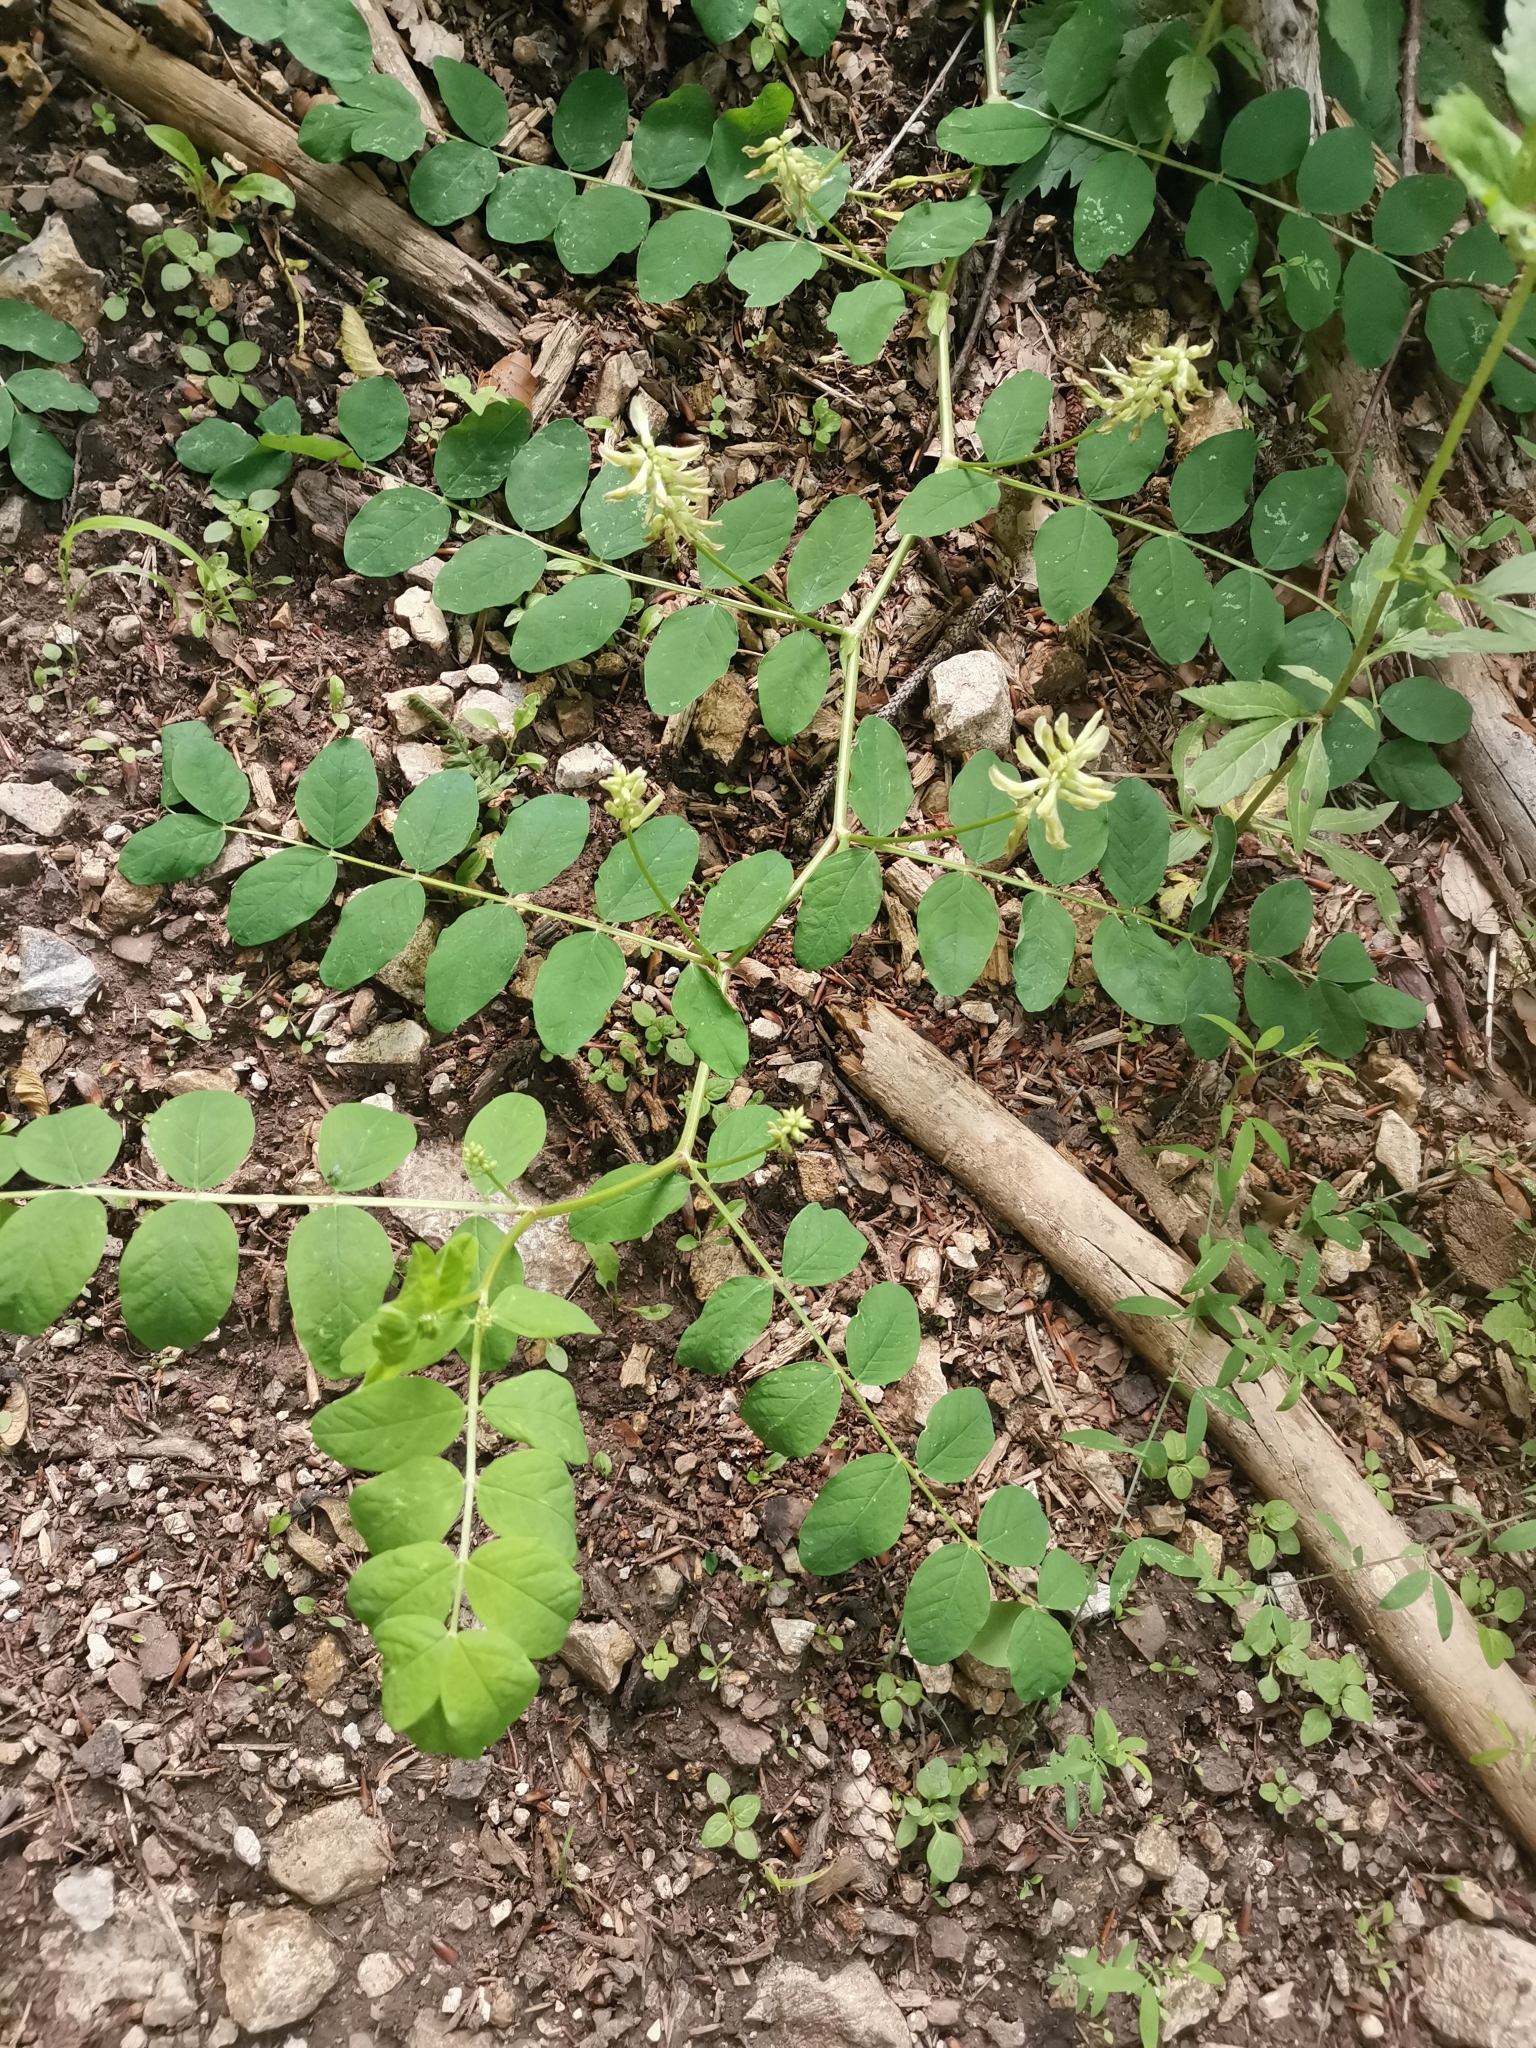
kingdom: Plantae
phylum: Tracheophyta
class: Magnoliopsida
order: Fabales
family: Fabaceae
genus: Astragalus
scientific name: Astragalus glycyphyllos
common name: Wild liquorice
